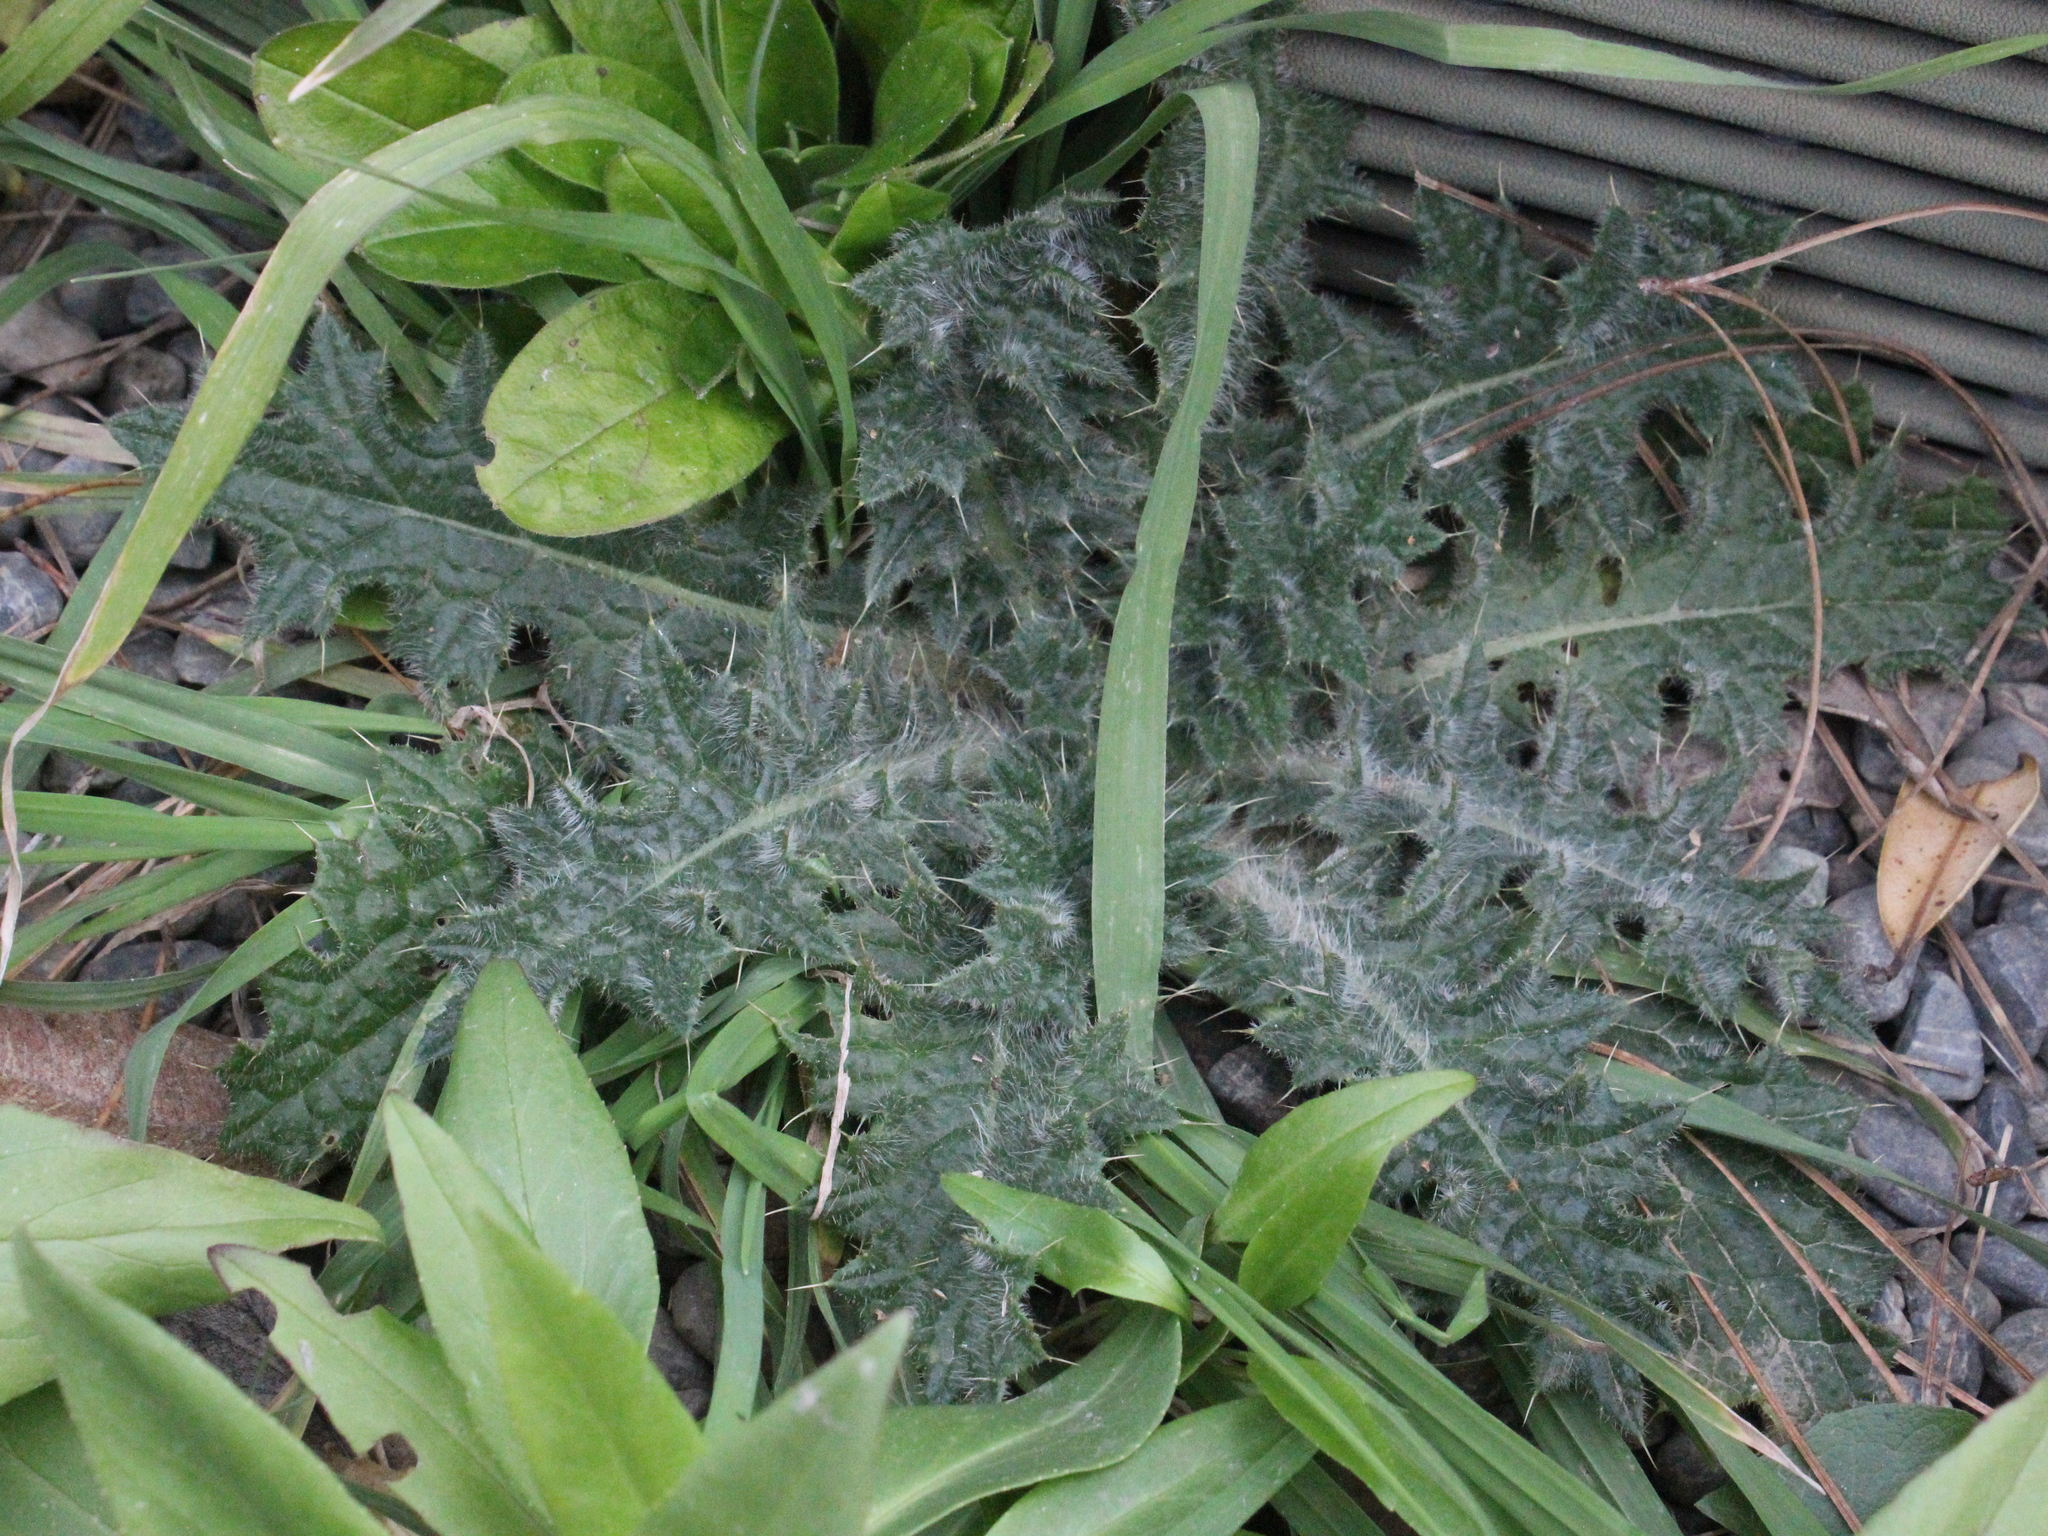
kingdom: Plantae
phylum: Tracheophyta
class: Magnoliopsida
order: Asterales
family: Asteraceae
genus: Cirsium
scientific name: Cirsium vulgare
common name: Bull thistle
